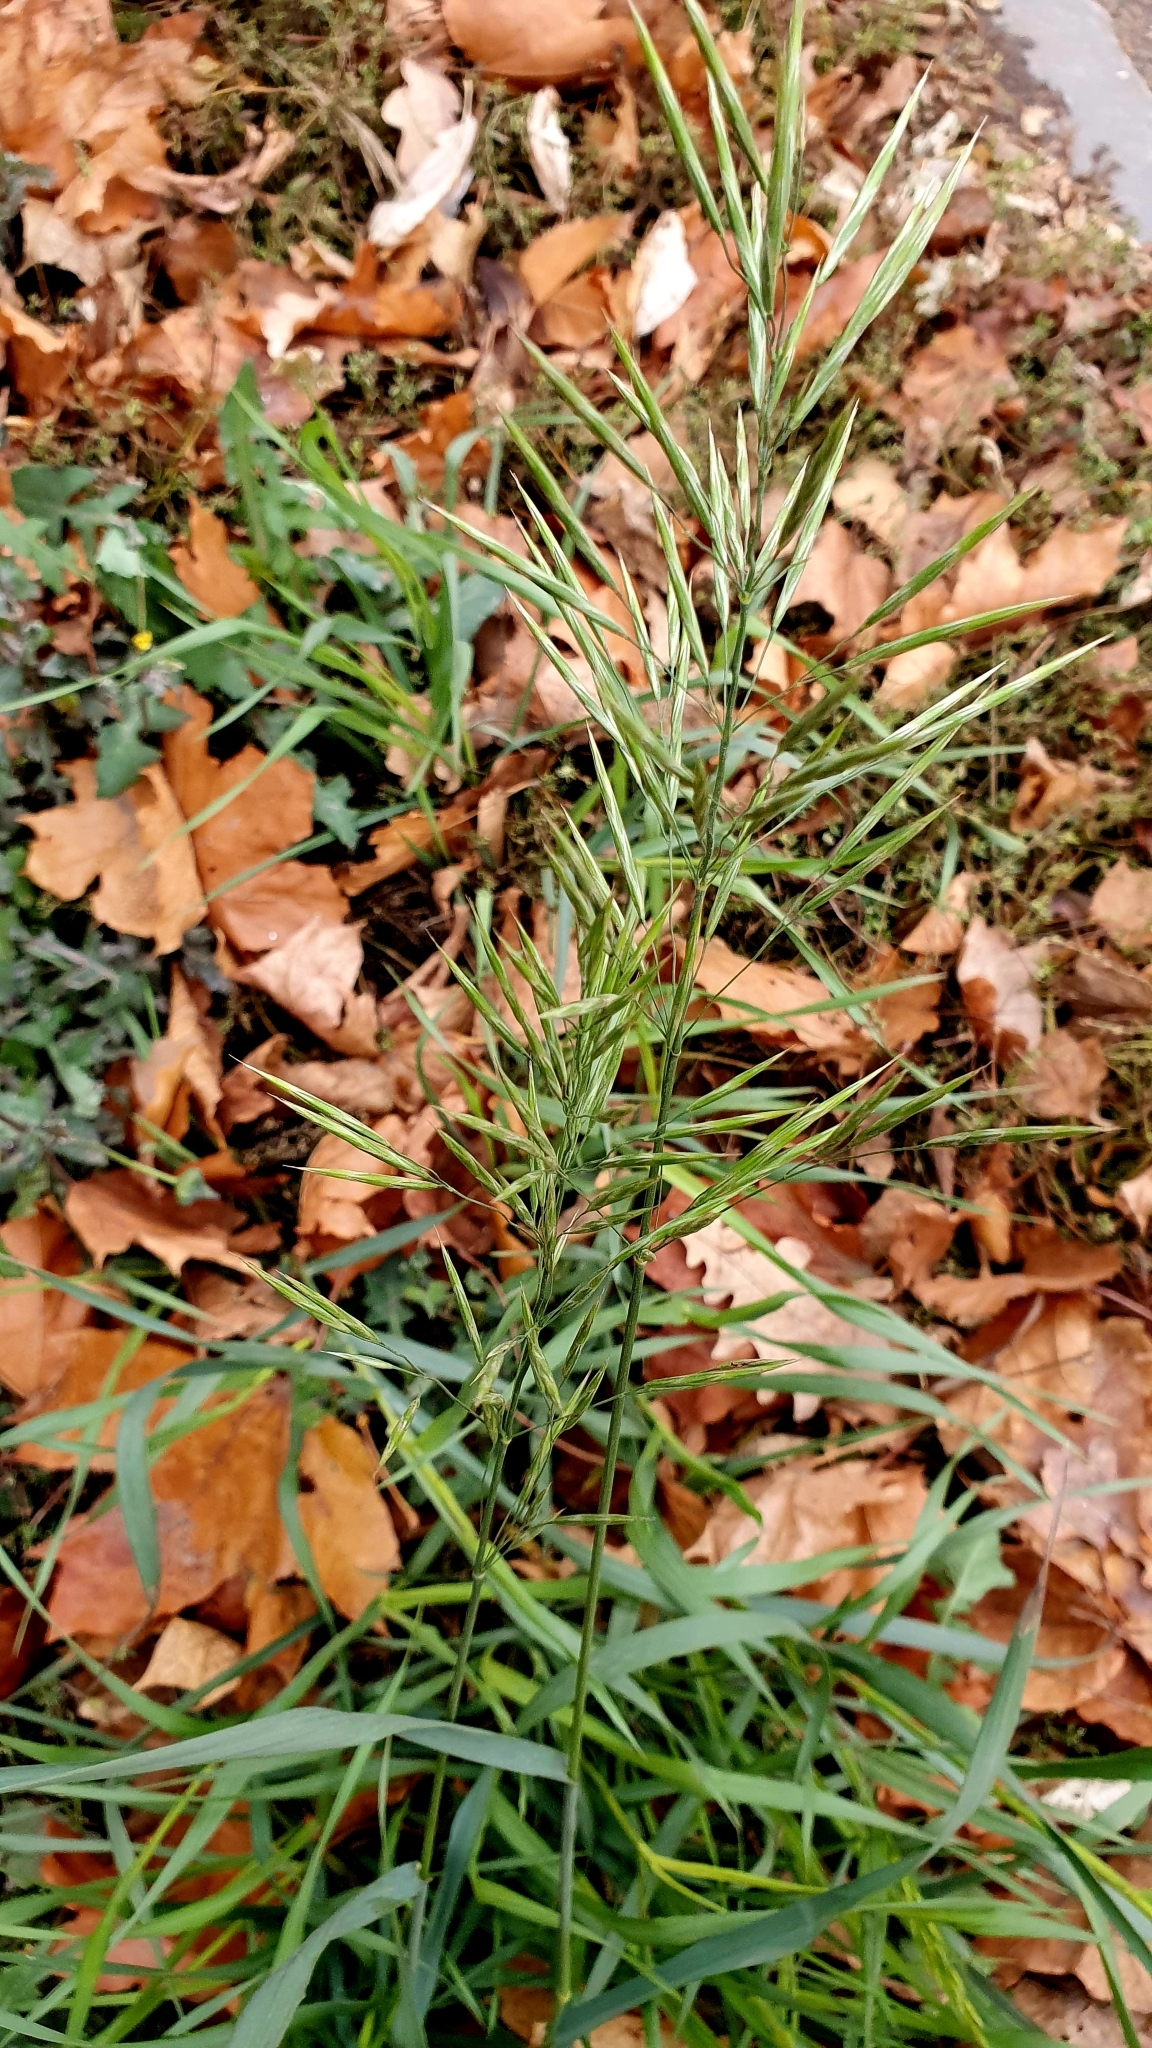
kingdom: Plantae
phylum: Tracheophyta
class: Liliopsida
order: Poales
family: Poaceae
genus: Bromus
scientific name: Bromus inermis
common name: Smooth brome
